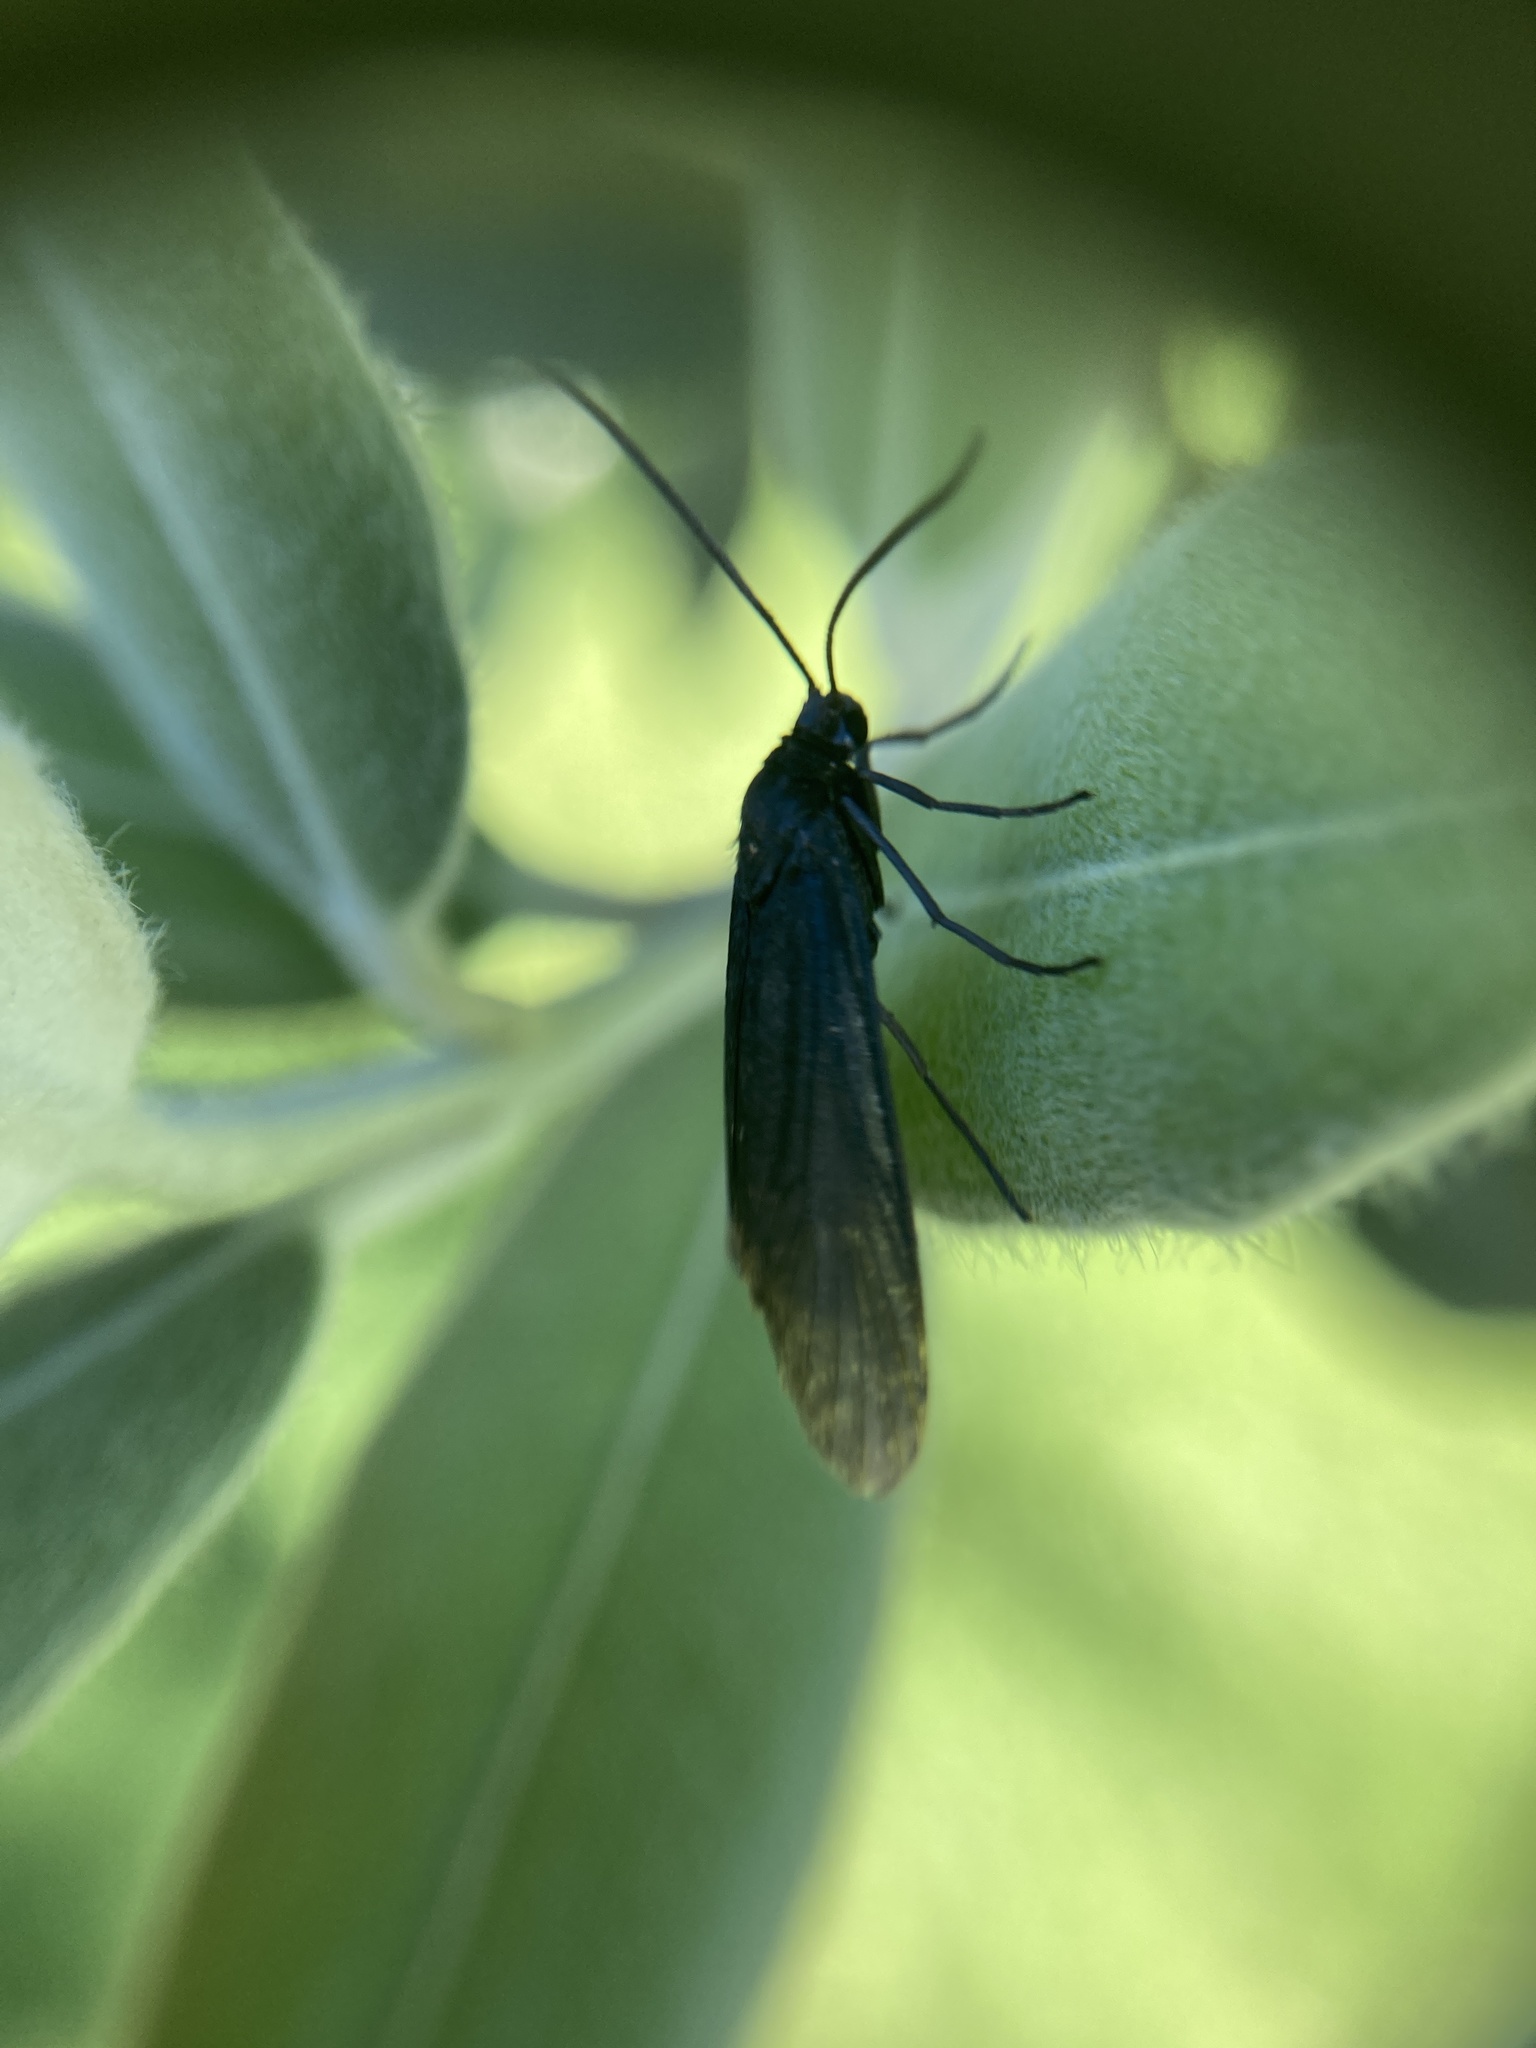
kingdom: Animalia
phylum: Arthropoda
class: Insecta
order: Lepidoptera
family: Zygaenidae
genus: Artona
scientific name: Artona martini
